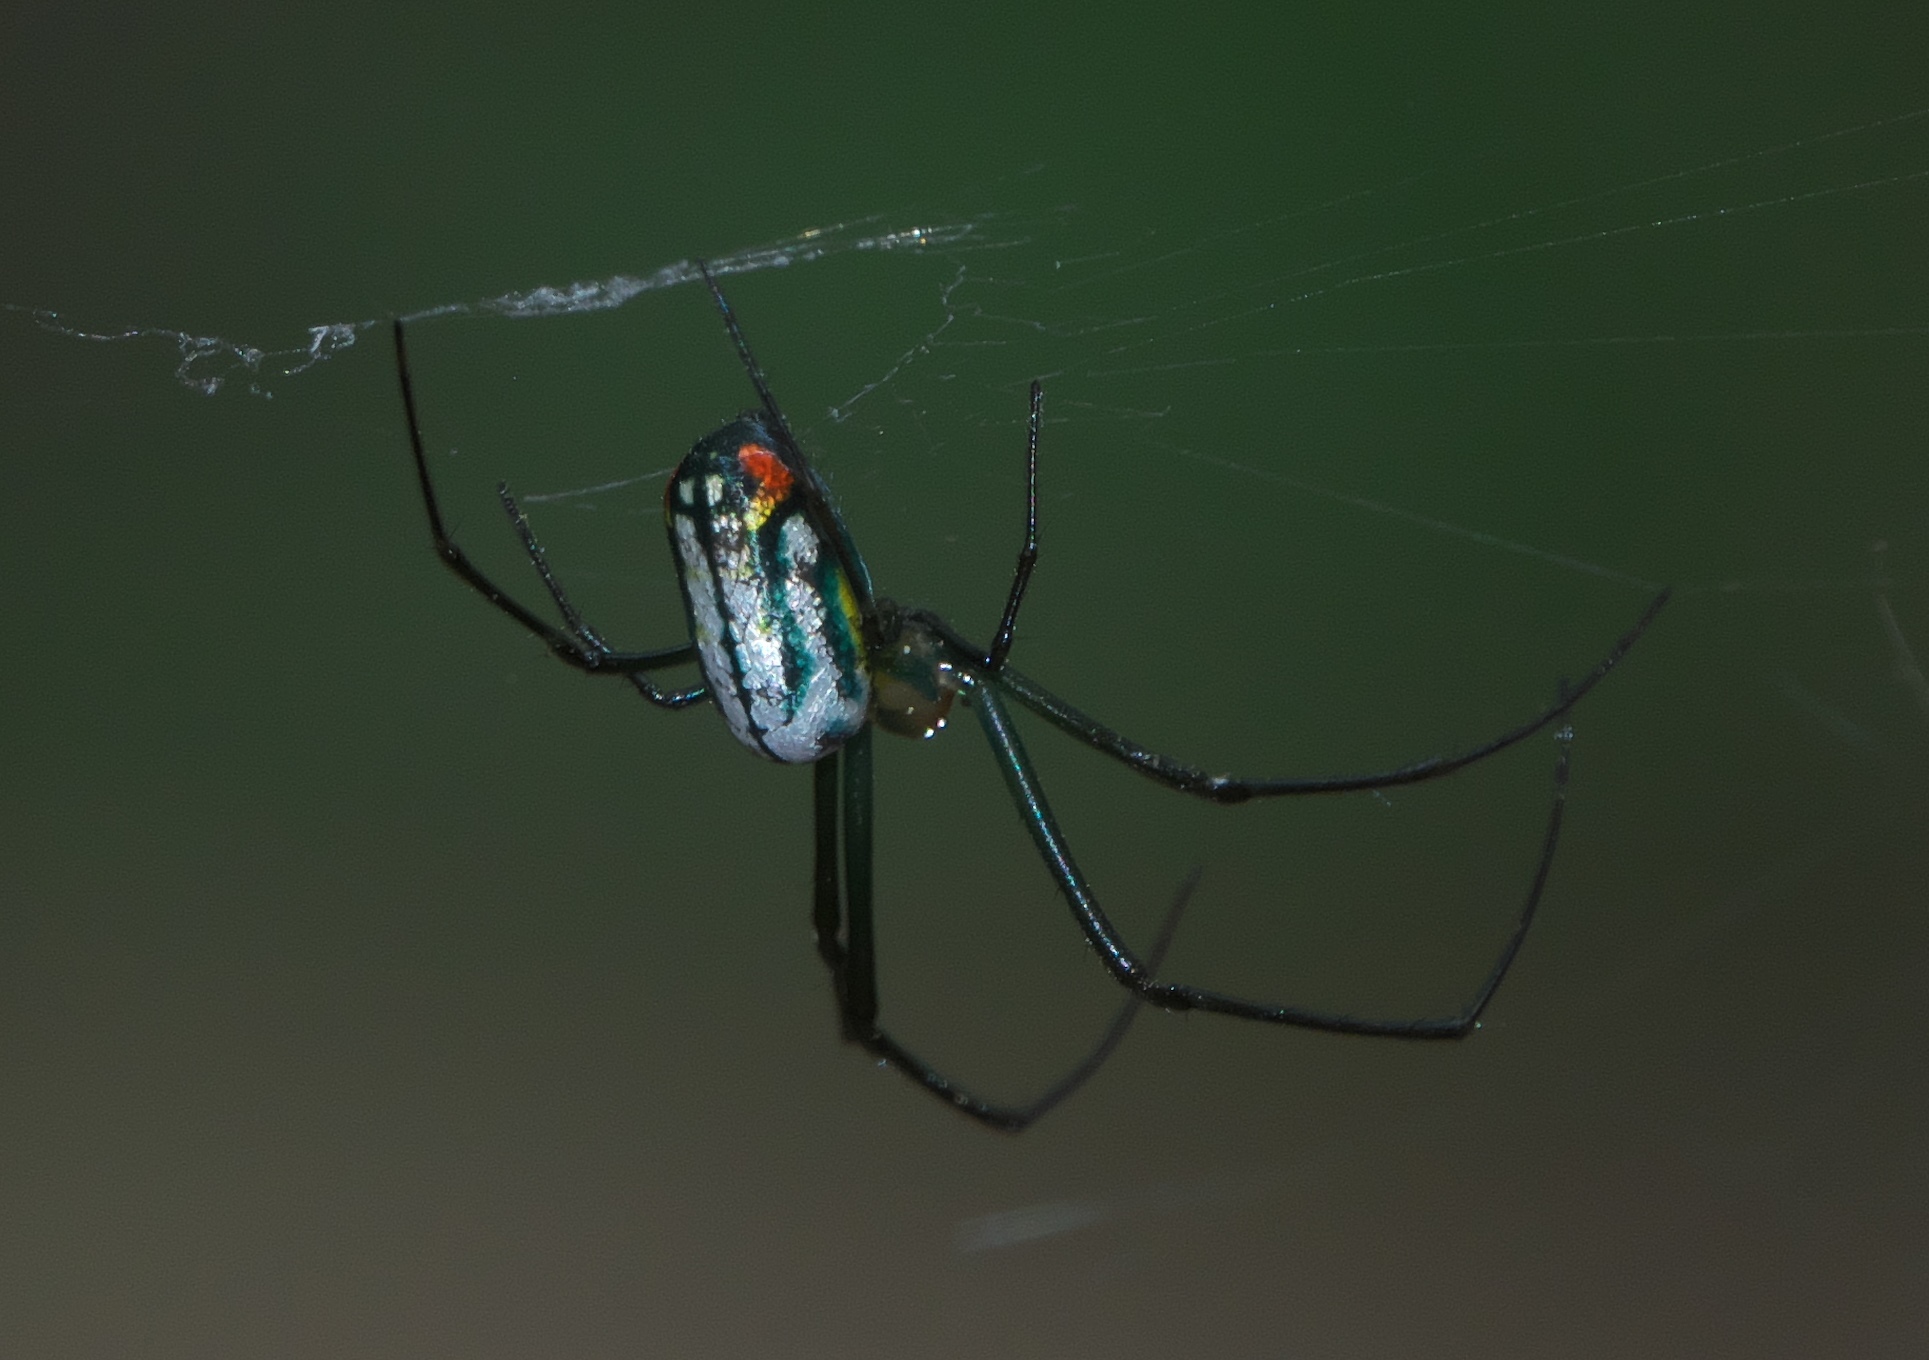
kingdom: Animalia
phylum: Arthropoda
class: Arachnida
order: Araneae
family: Tetragnathidae
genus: Leucauge
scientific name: Leucauge argyrobapta
